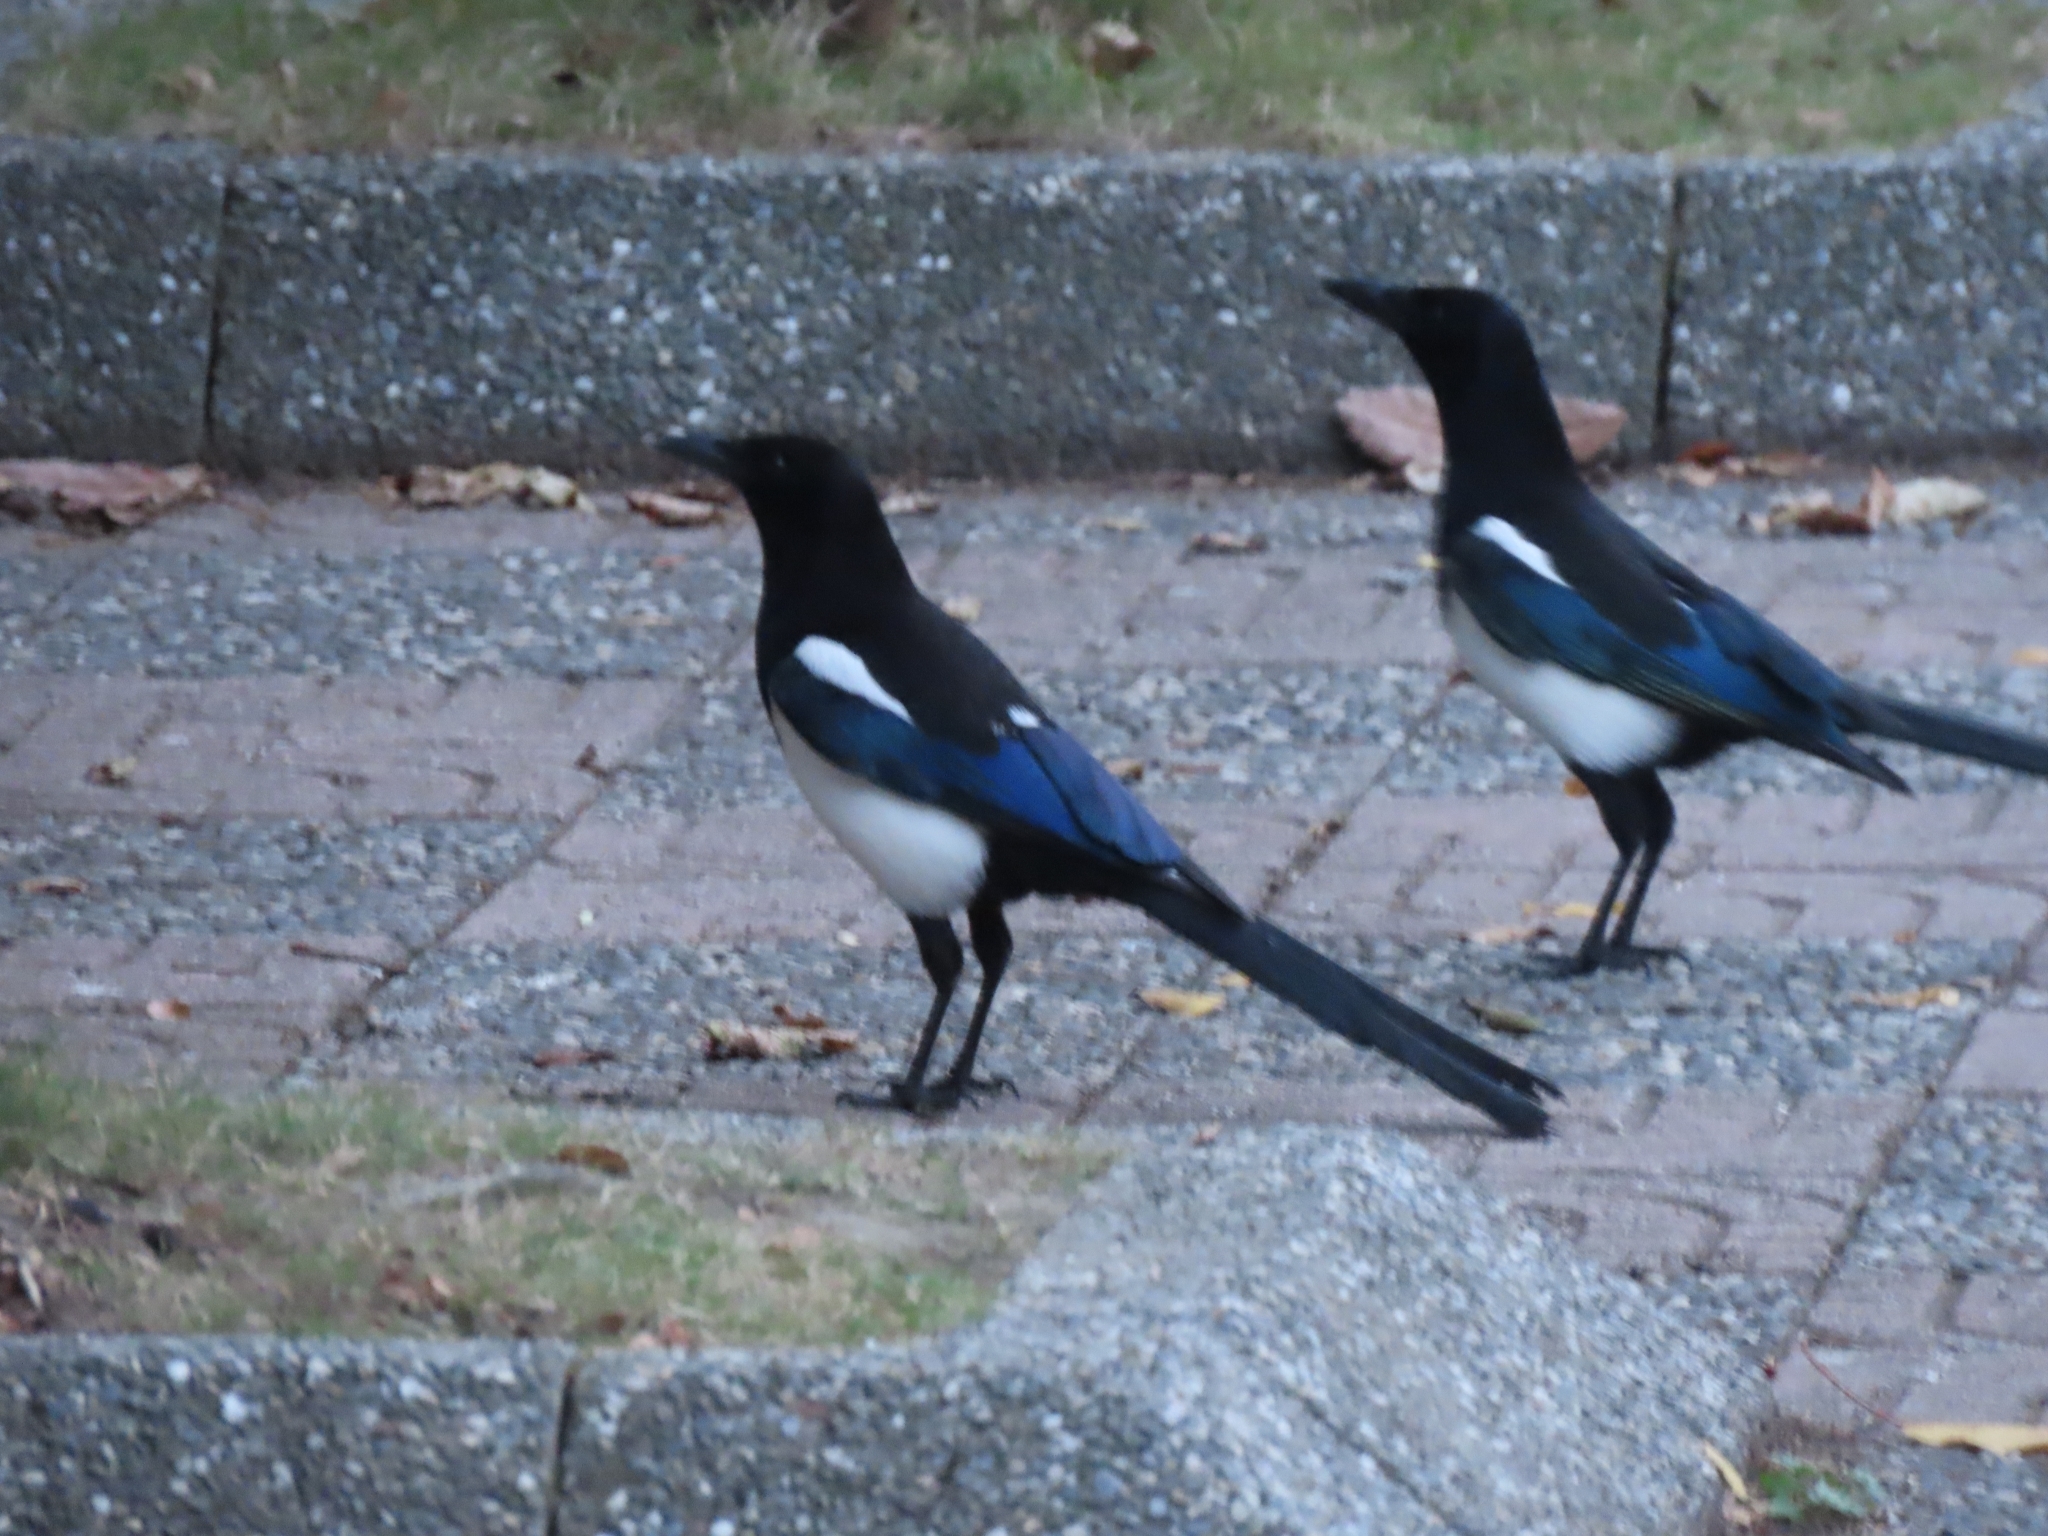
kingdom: Animalia
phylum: Chordata
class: Aves
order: Passeriformes
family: Corvidae
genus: Pica
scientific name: Pica serica
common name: Oriental magpie
